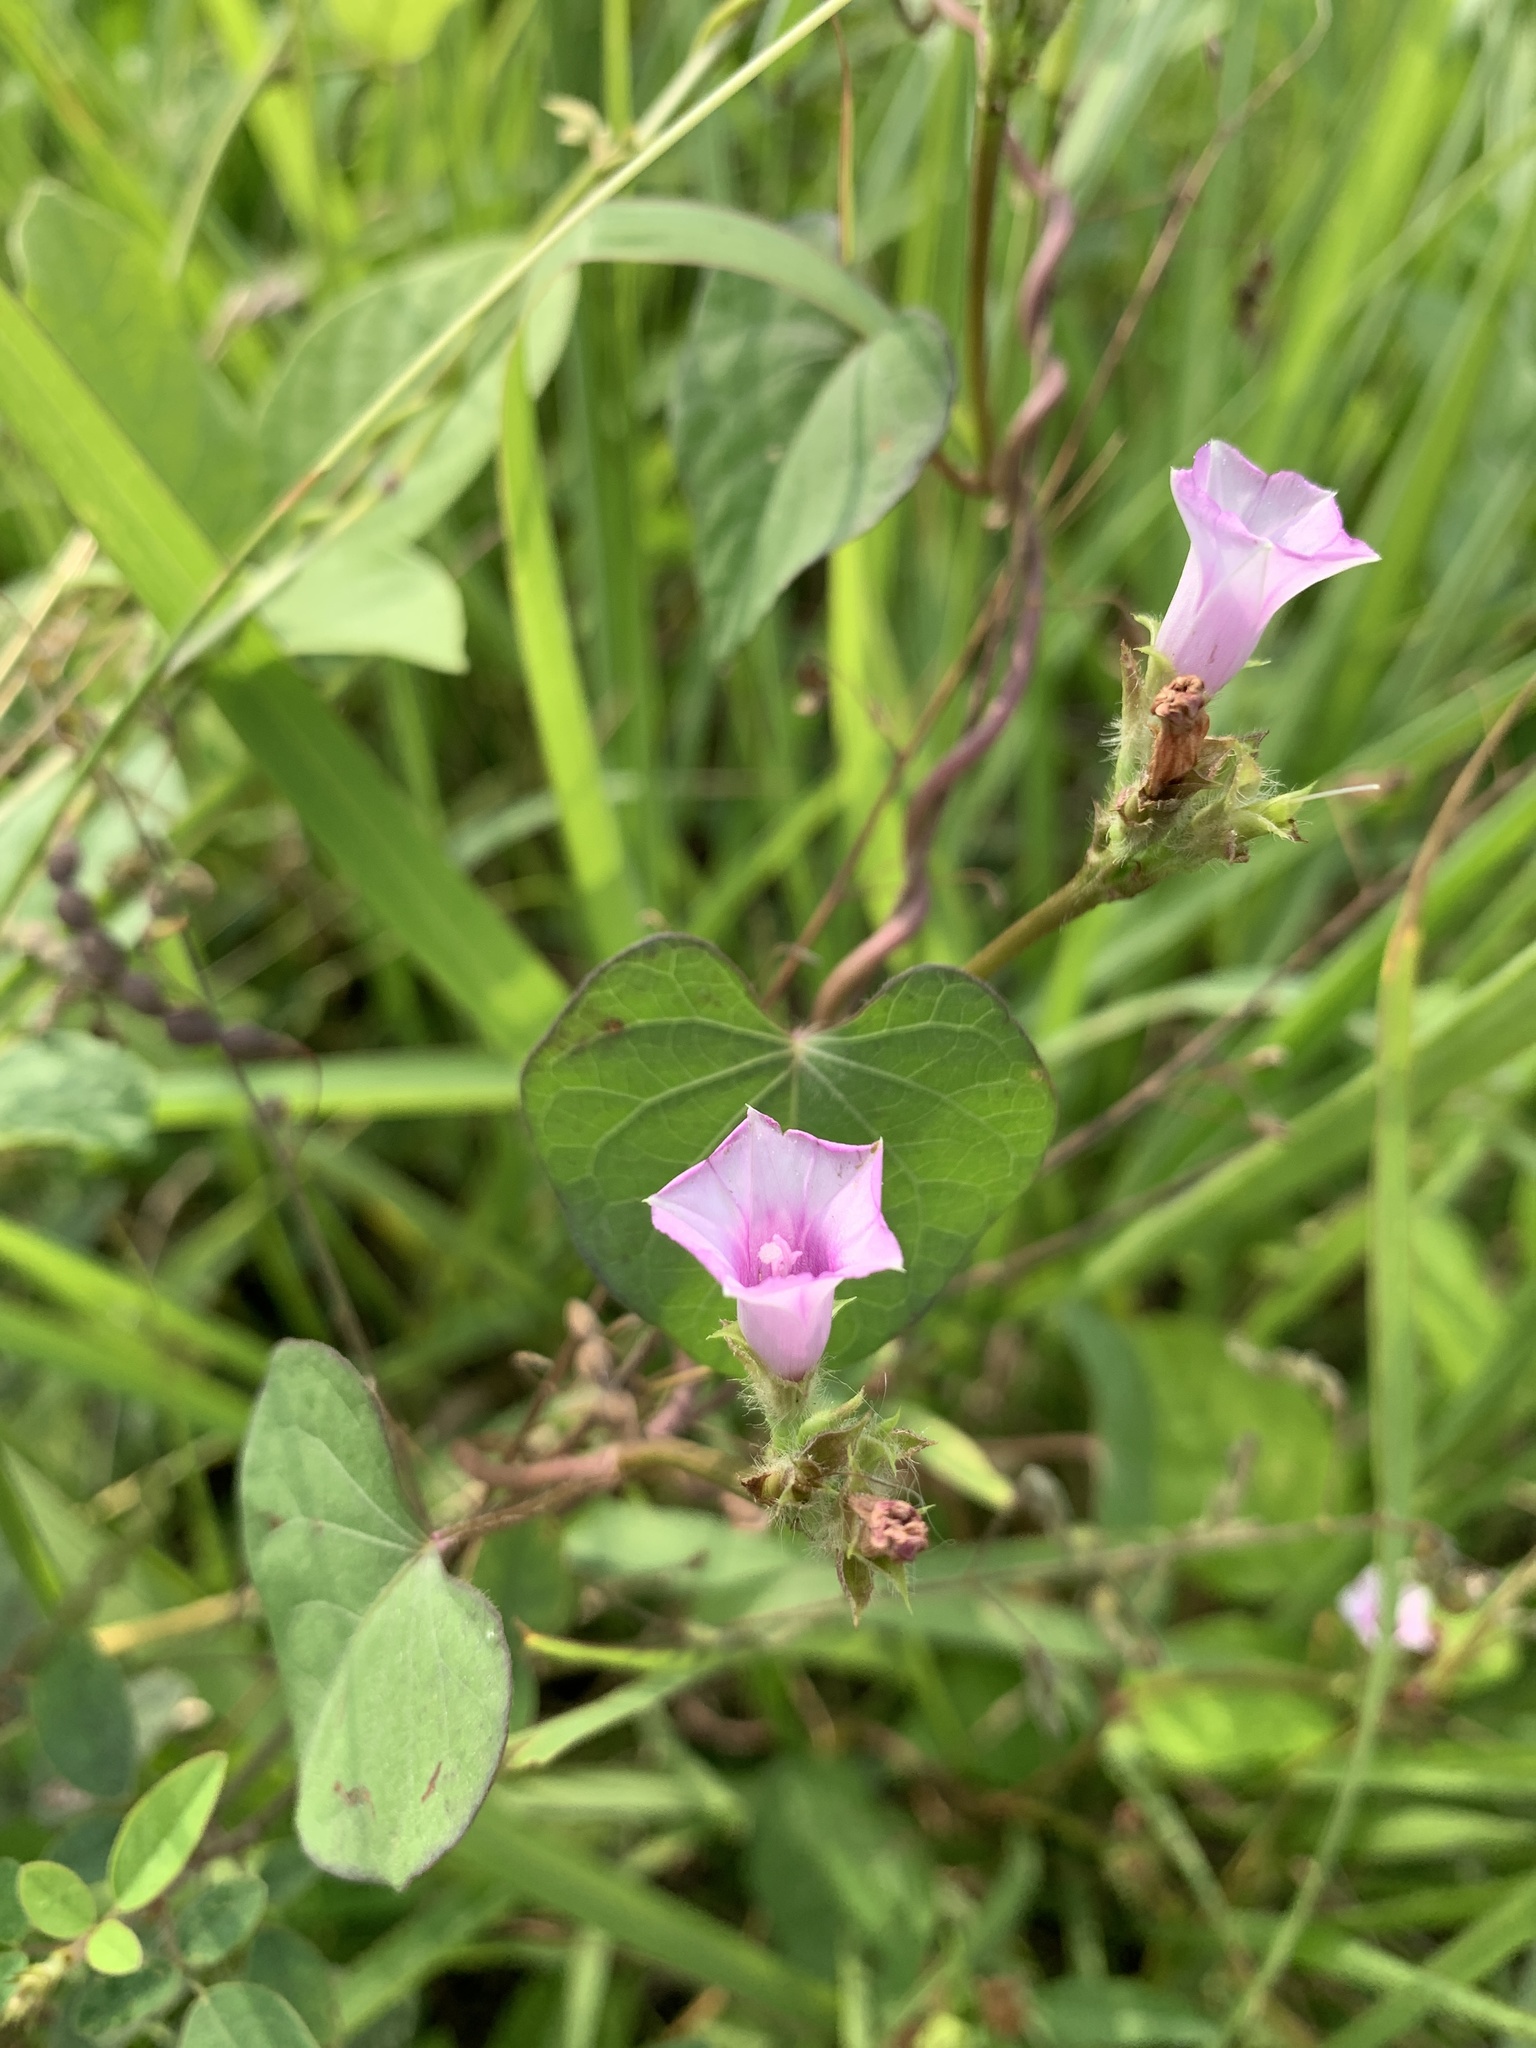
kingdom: Plantae
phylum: Tracheophyta
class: Magnoliopsida
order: Solanales
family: Convolvulaceae
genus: Ipomoea
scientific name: Ipomoea triloba
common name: Little-bell
